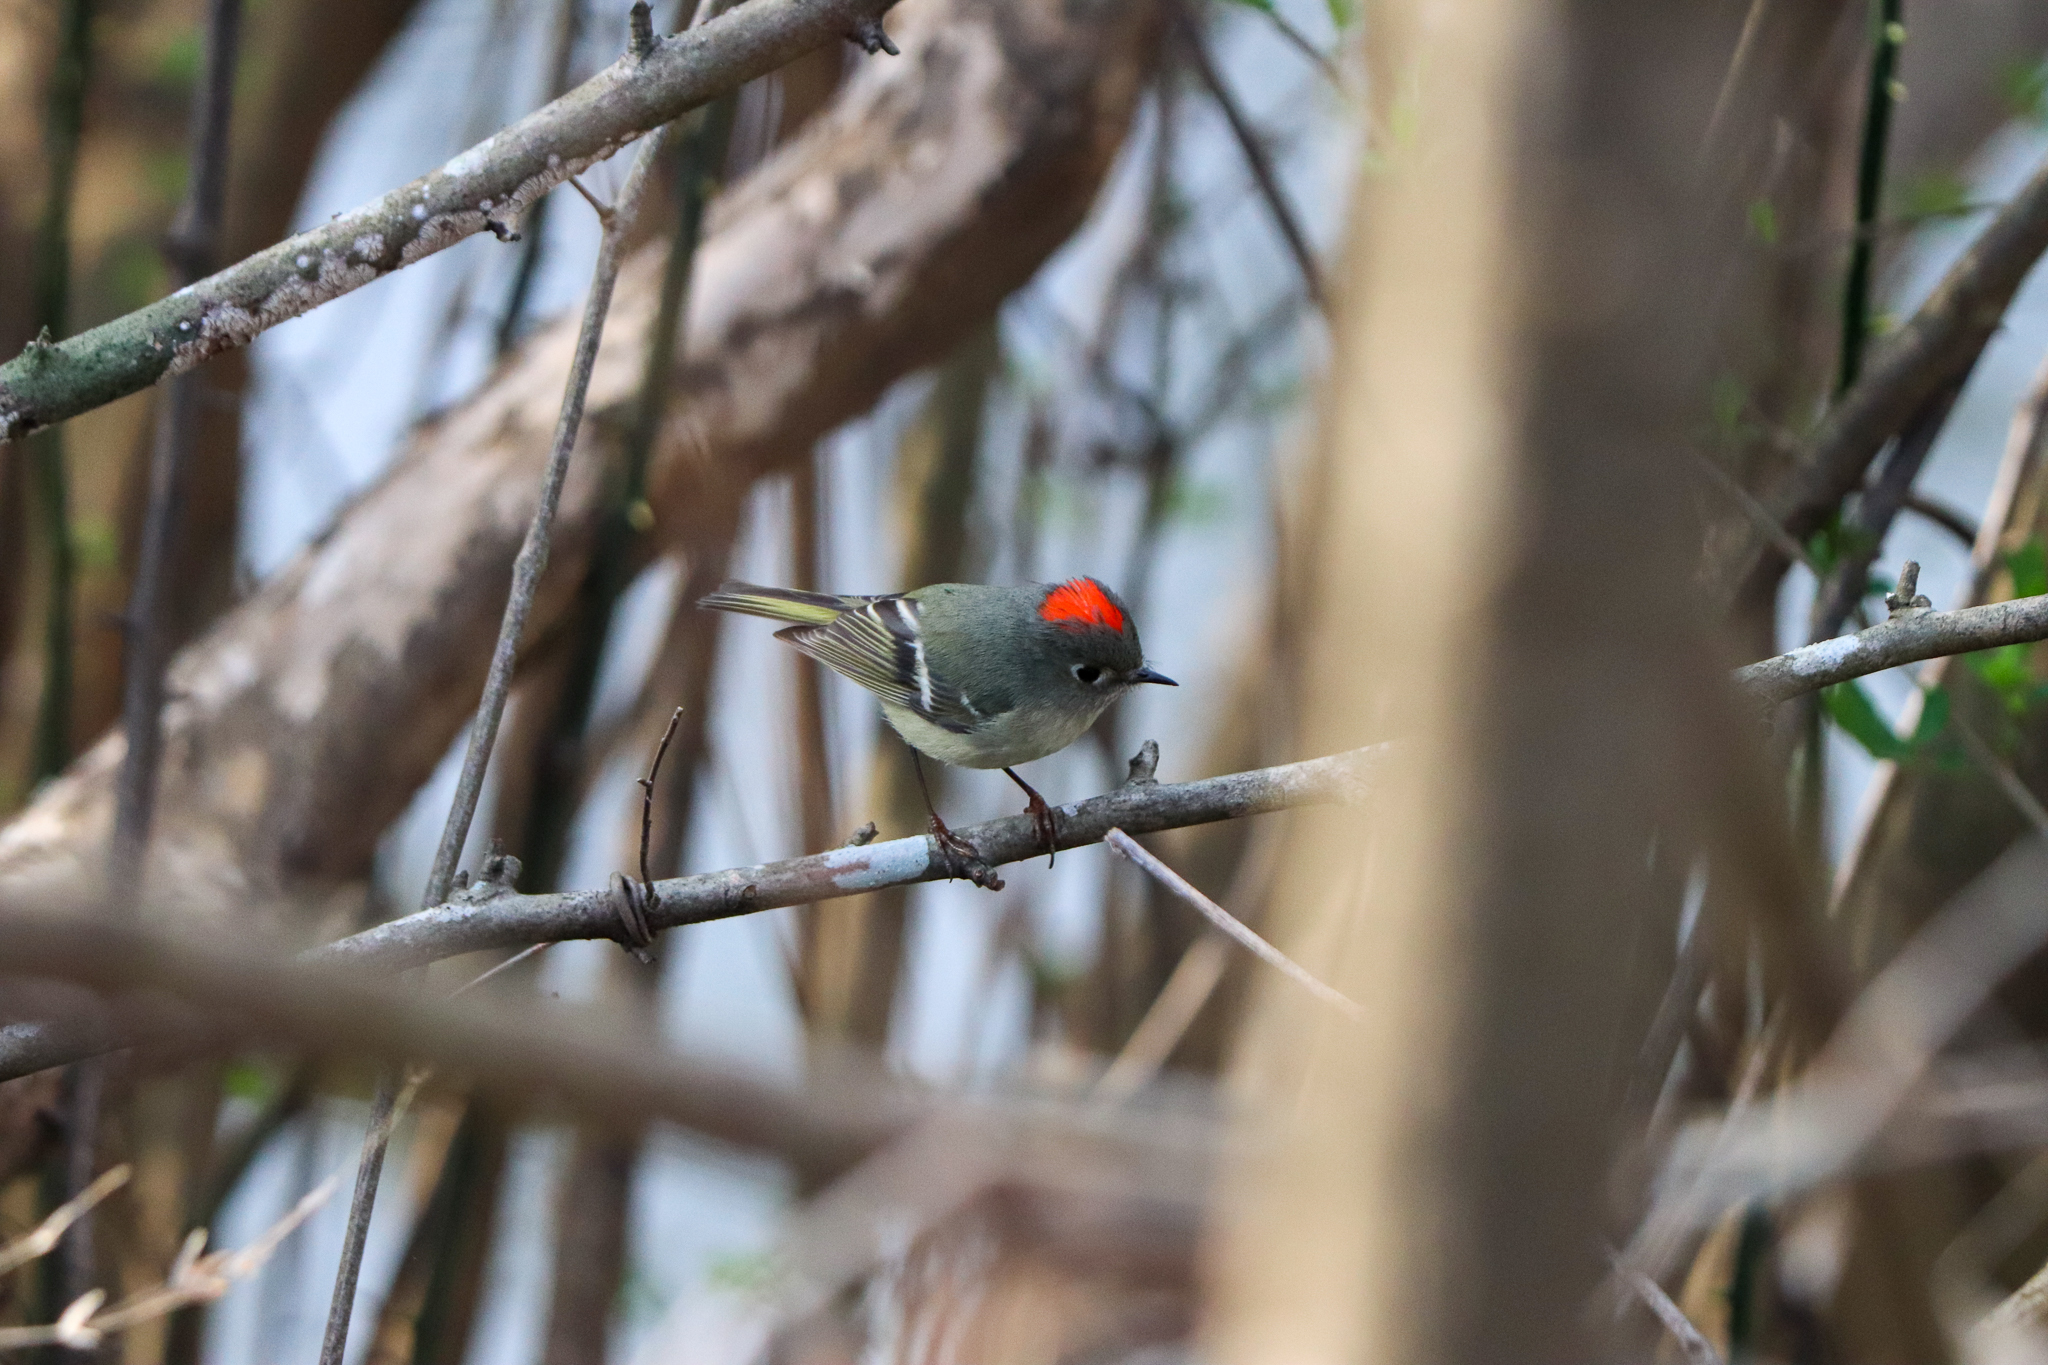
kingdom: Animalia
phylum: Chordata
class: Aves
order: Passeriformes
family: Regulidae
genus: Regulus
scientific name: Regulus calendula
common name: Ruby-crowned kinglet
